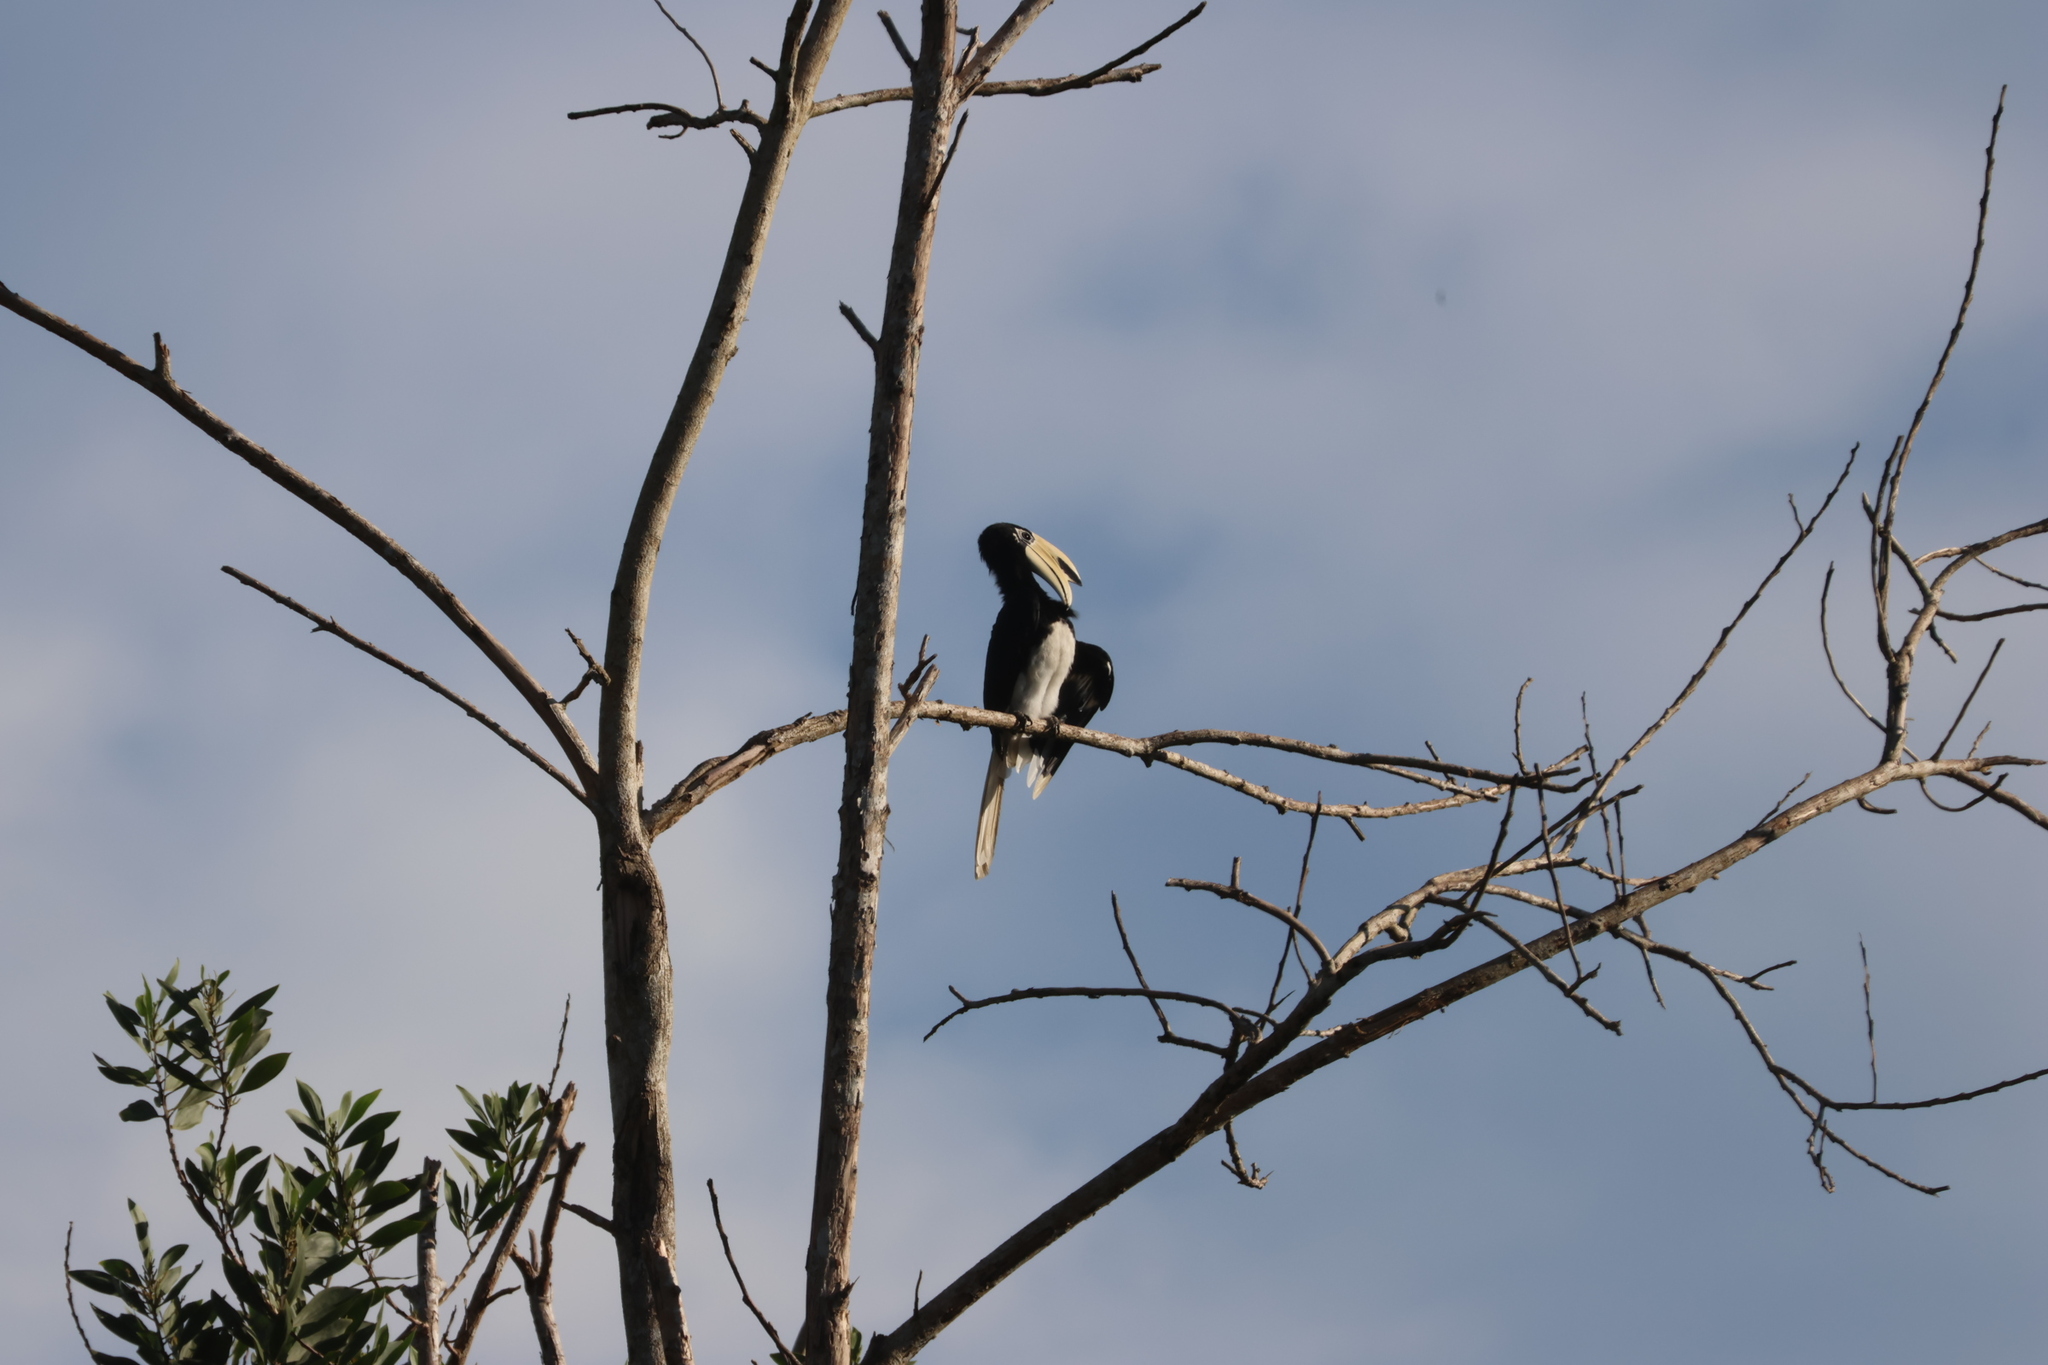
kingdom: Animalia
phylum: Chordata
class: Aves
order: Bucerotiformes
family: Bucerotidae
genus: Anthracoceros
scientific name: Anthracoceros albirostris
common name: Oriental pied-hornbill
